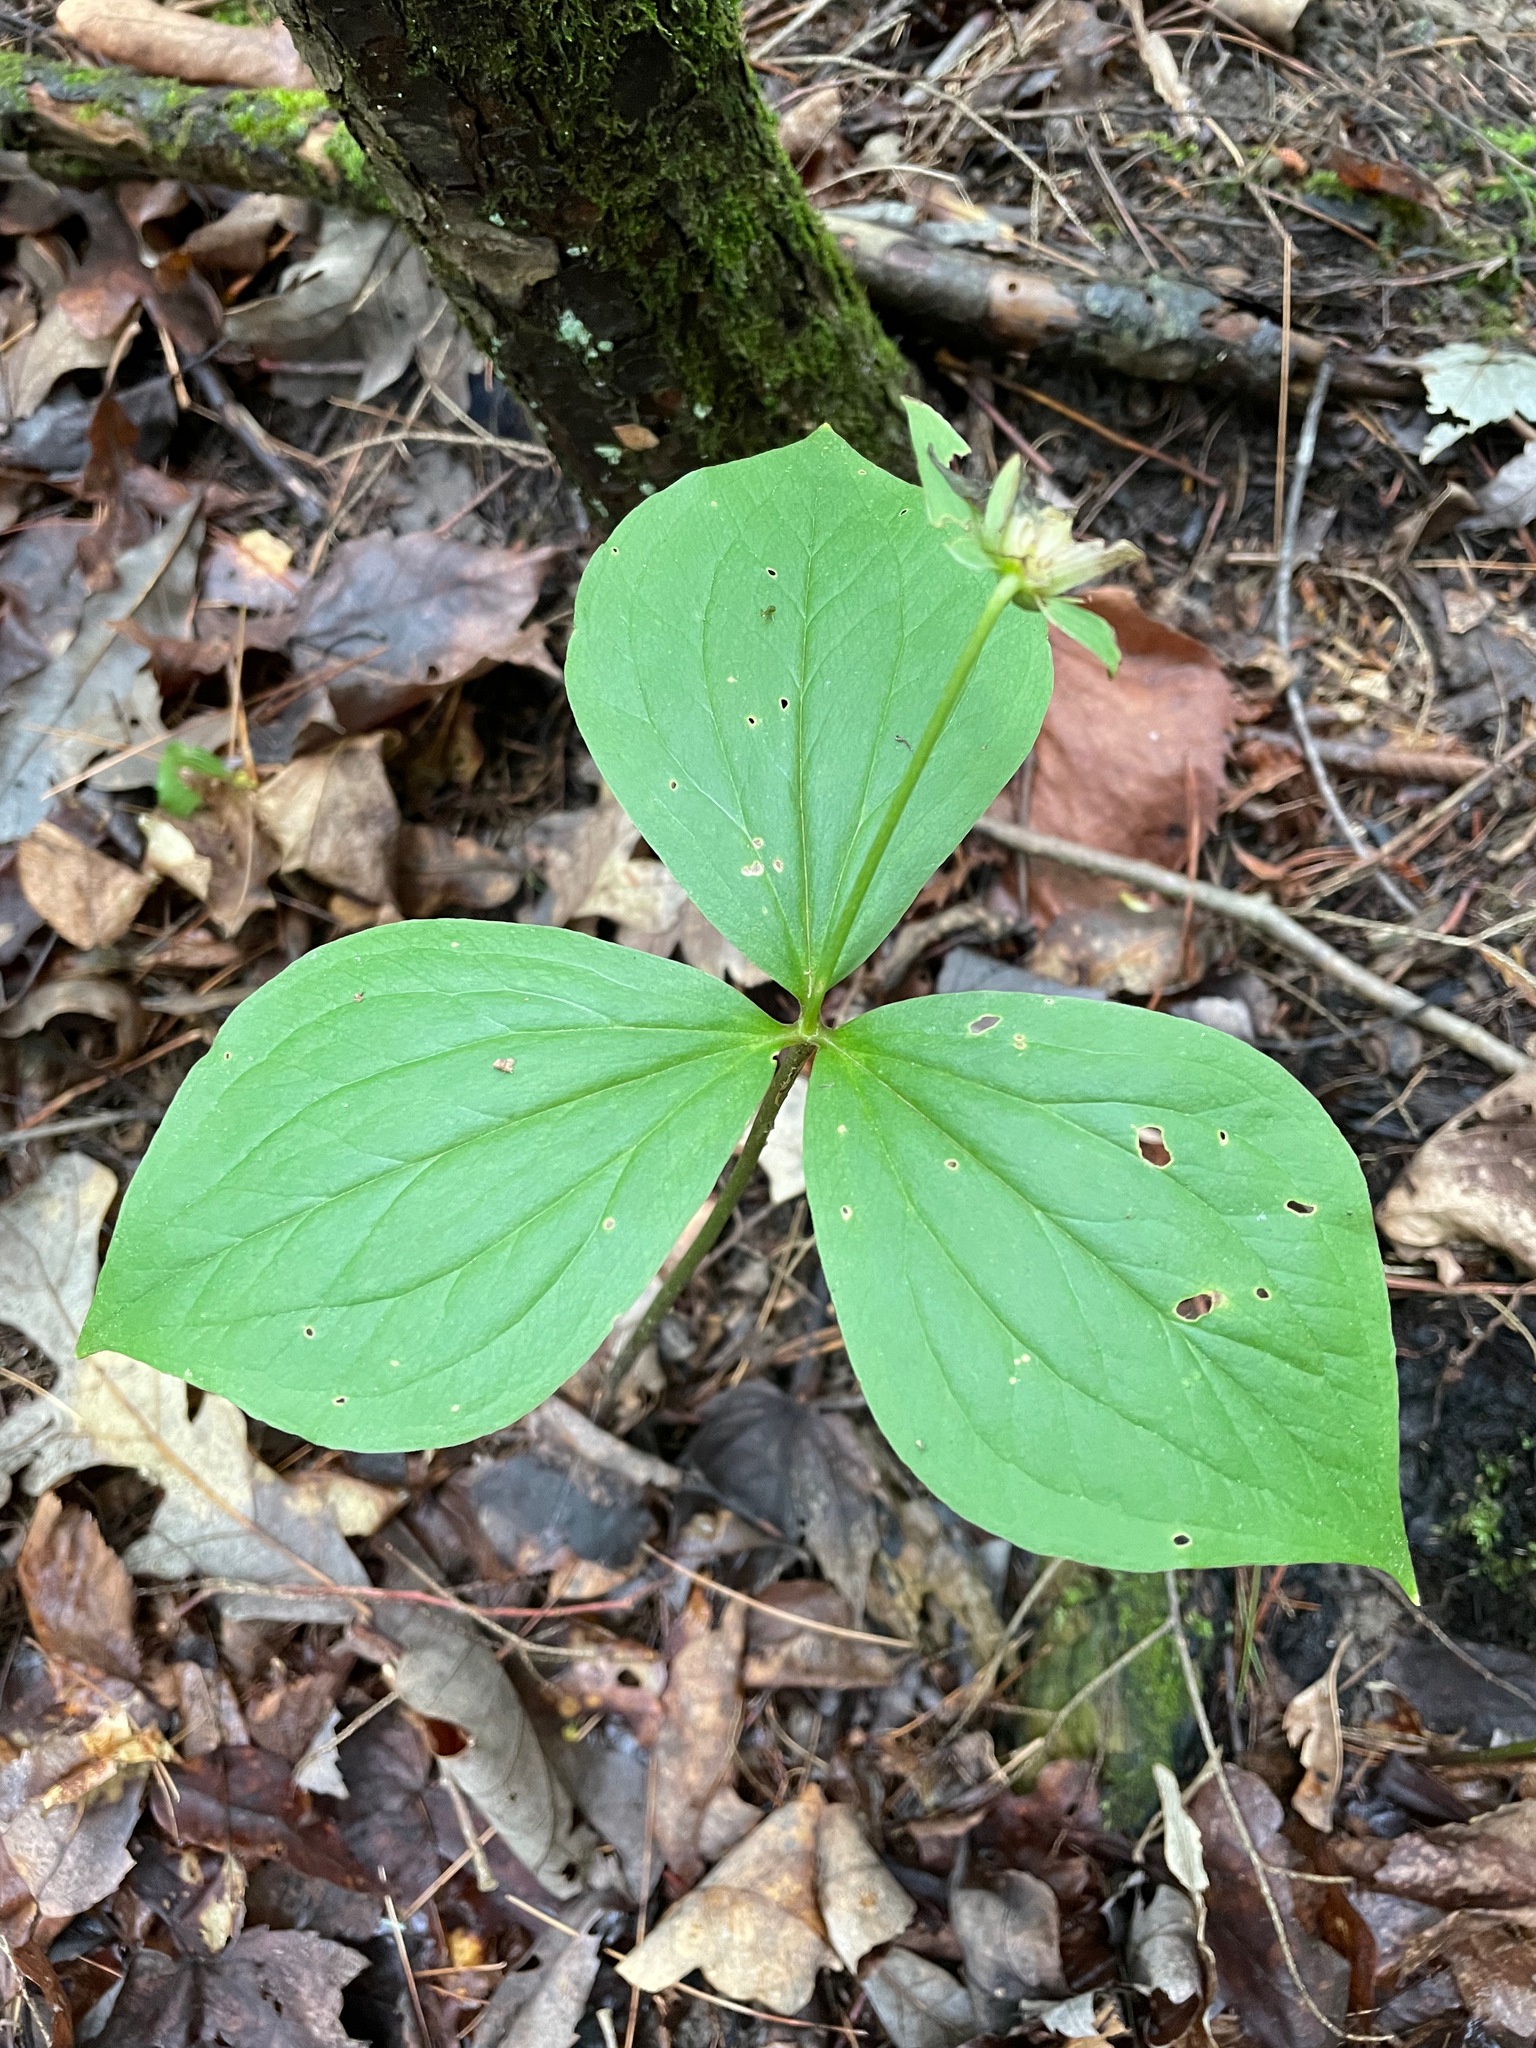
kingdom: Plantae
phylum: Tracheophyta
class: Liliopsida
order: Liliales
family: Melanthiaceae
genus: Trillium
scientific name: Trillium grandiflorum
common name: Great white trillium
